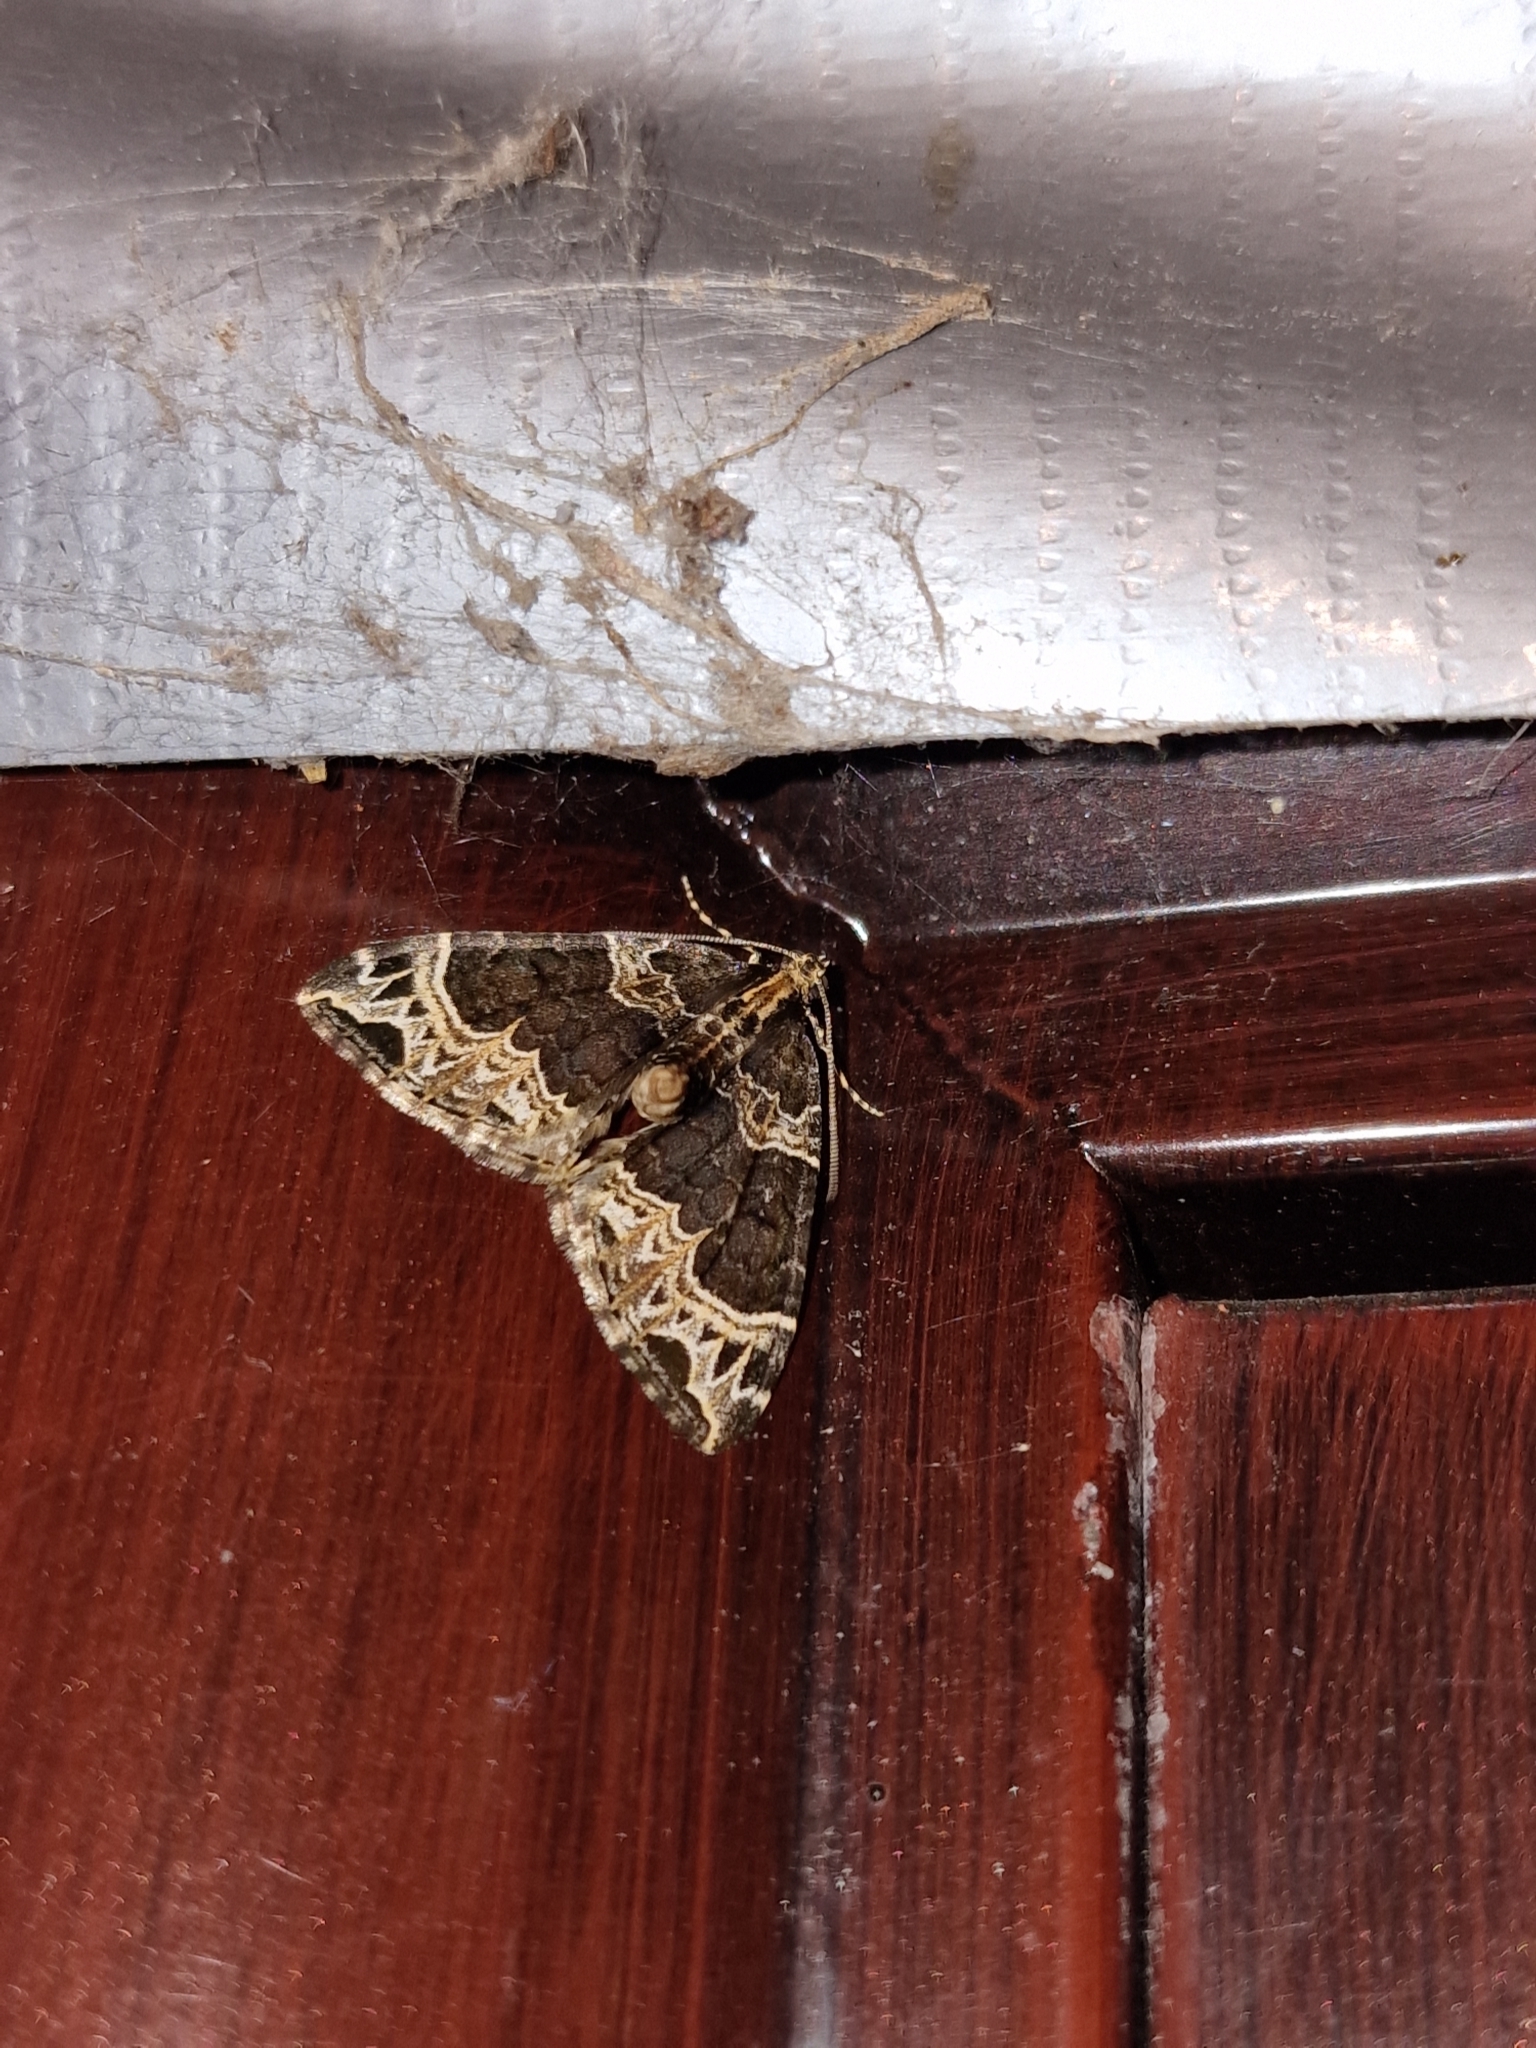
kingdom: Animalia
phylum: Arthropoda
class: Insecta
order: Lepidoptera
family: Geometridae
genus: Ecliptopera
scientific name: Ecliptopera silaceata
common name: Small phoenix
